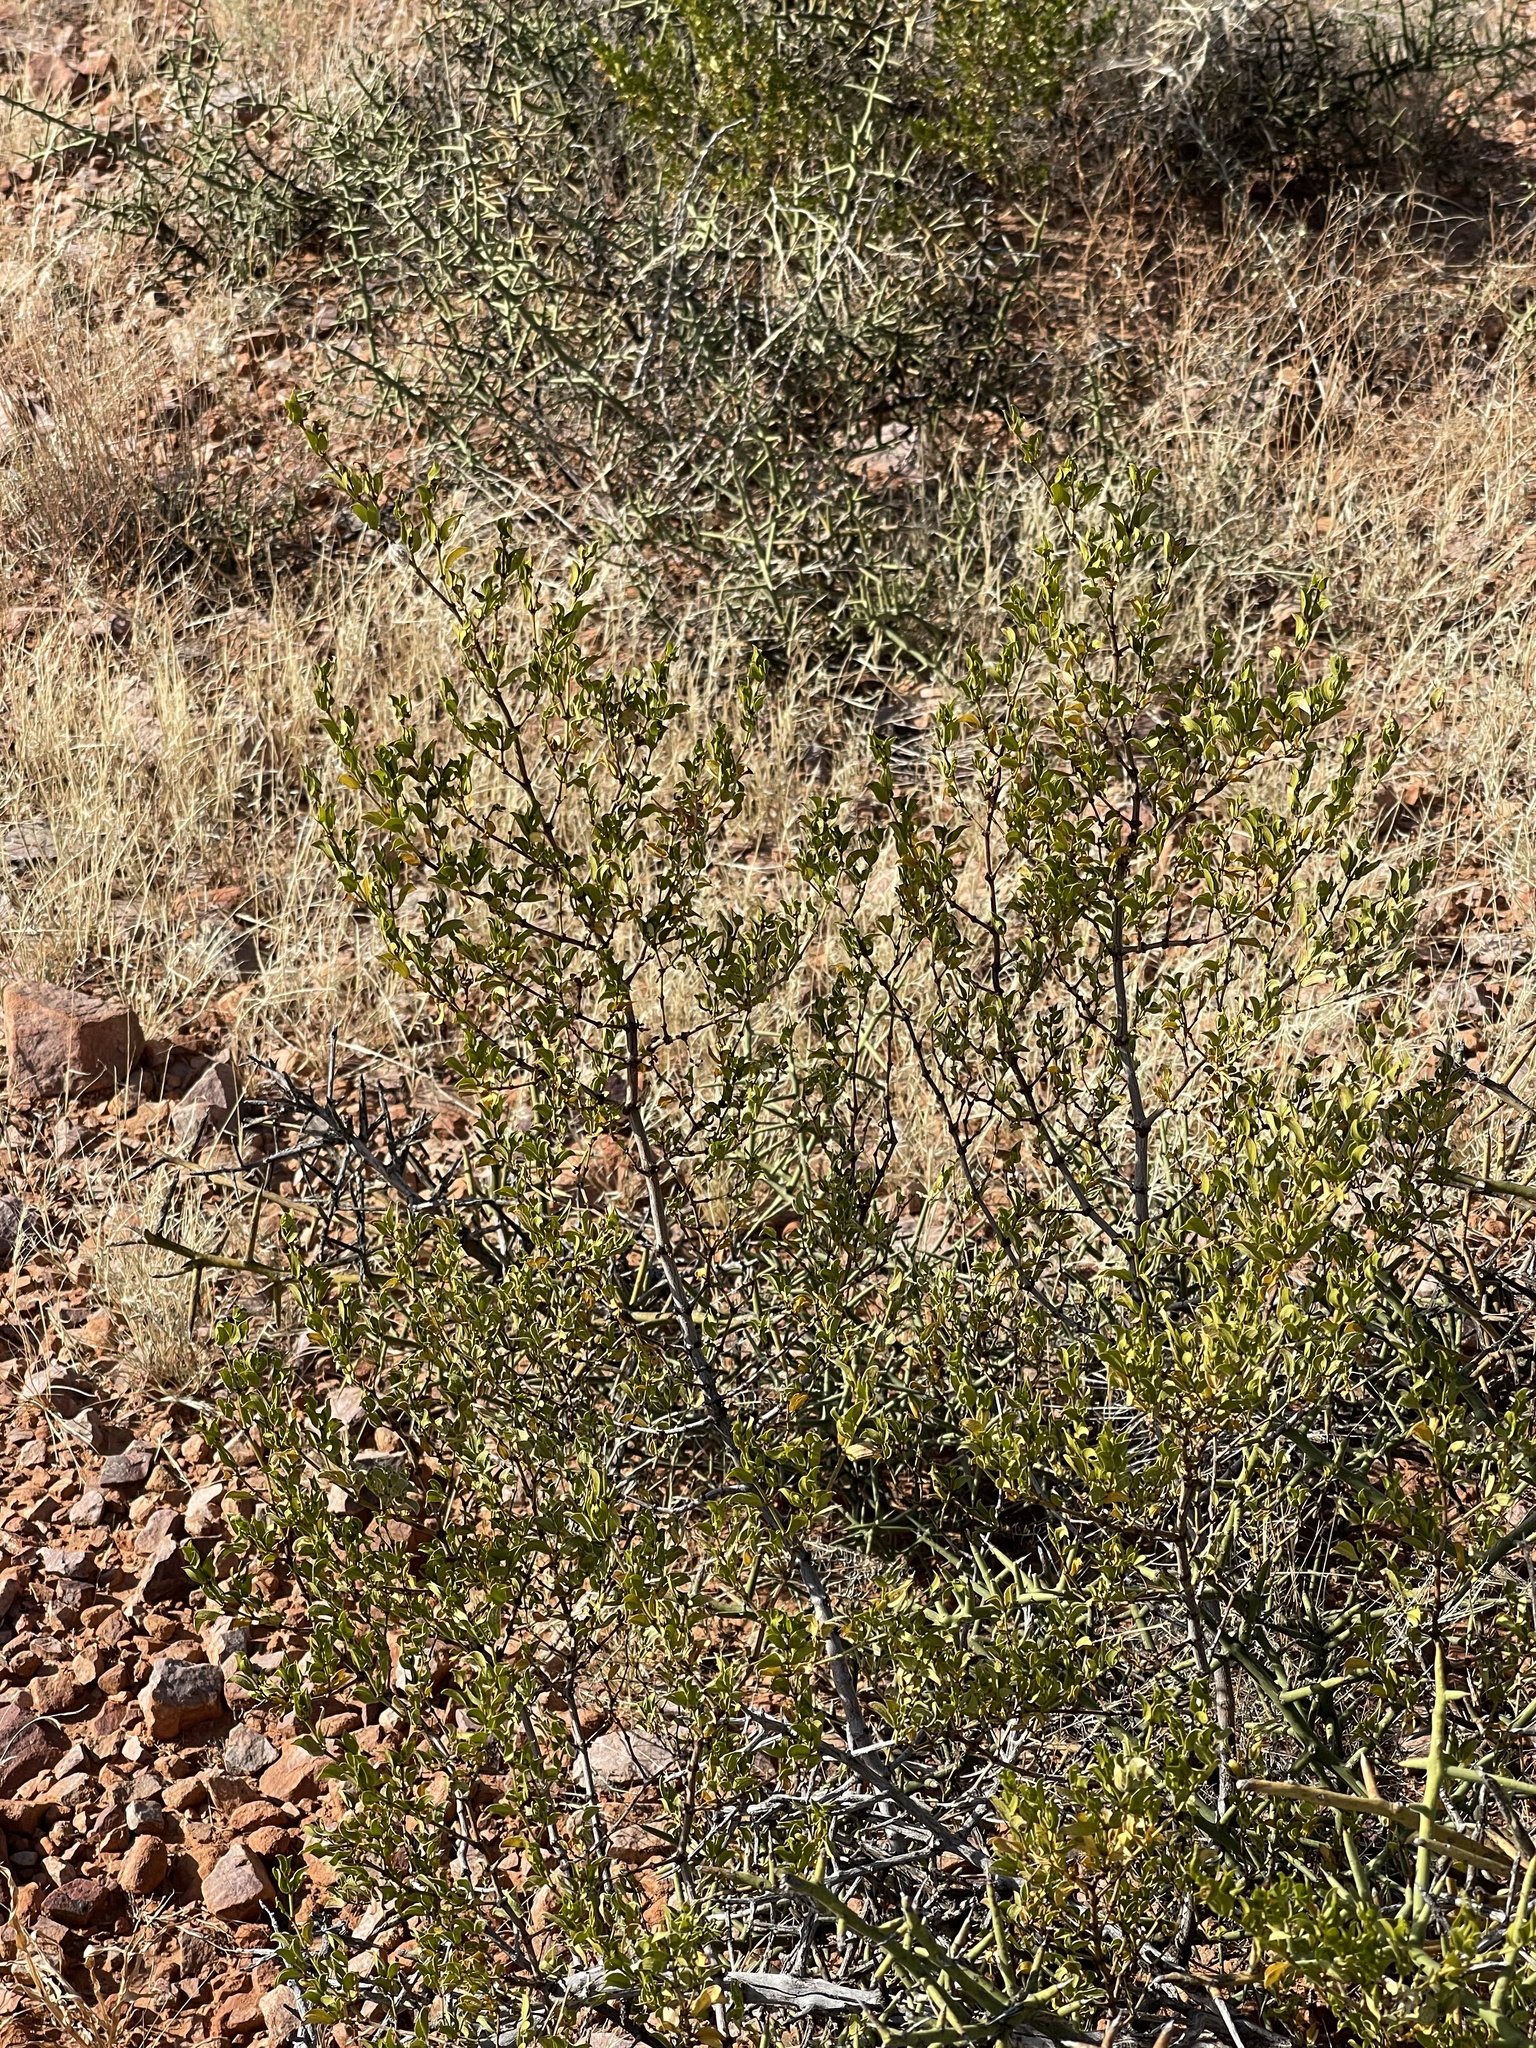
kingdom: Plantae
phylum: Tracheophyta
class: Magnoliopsida
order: Zygophyllales
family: Zygophyllaceae
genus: Larrea
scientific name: Larrea tridentata
